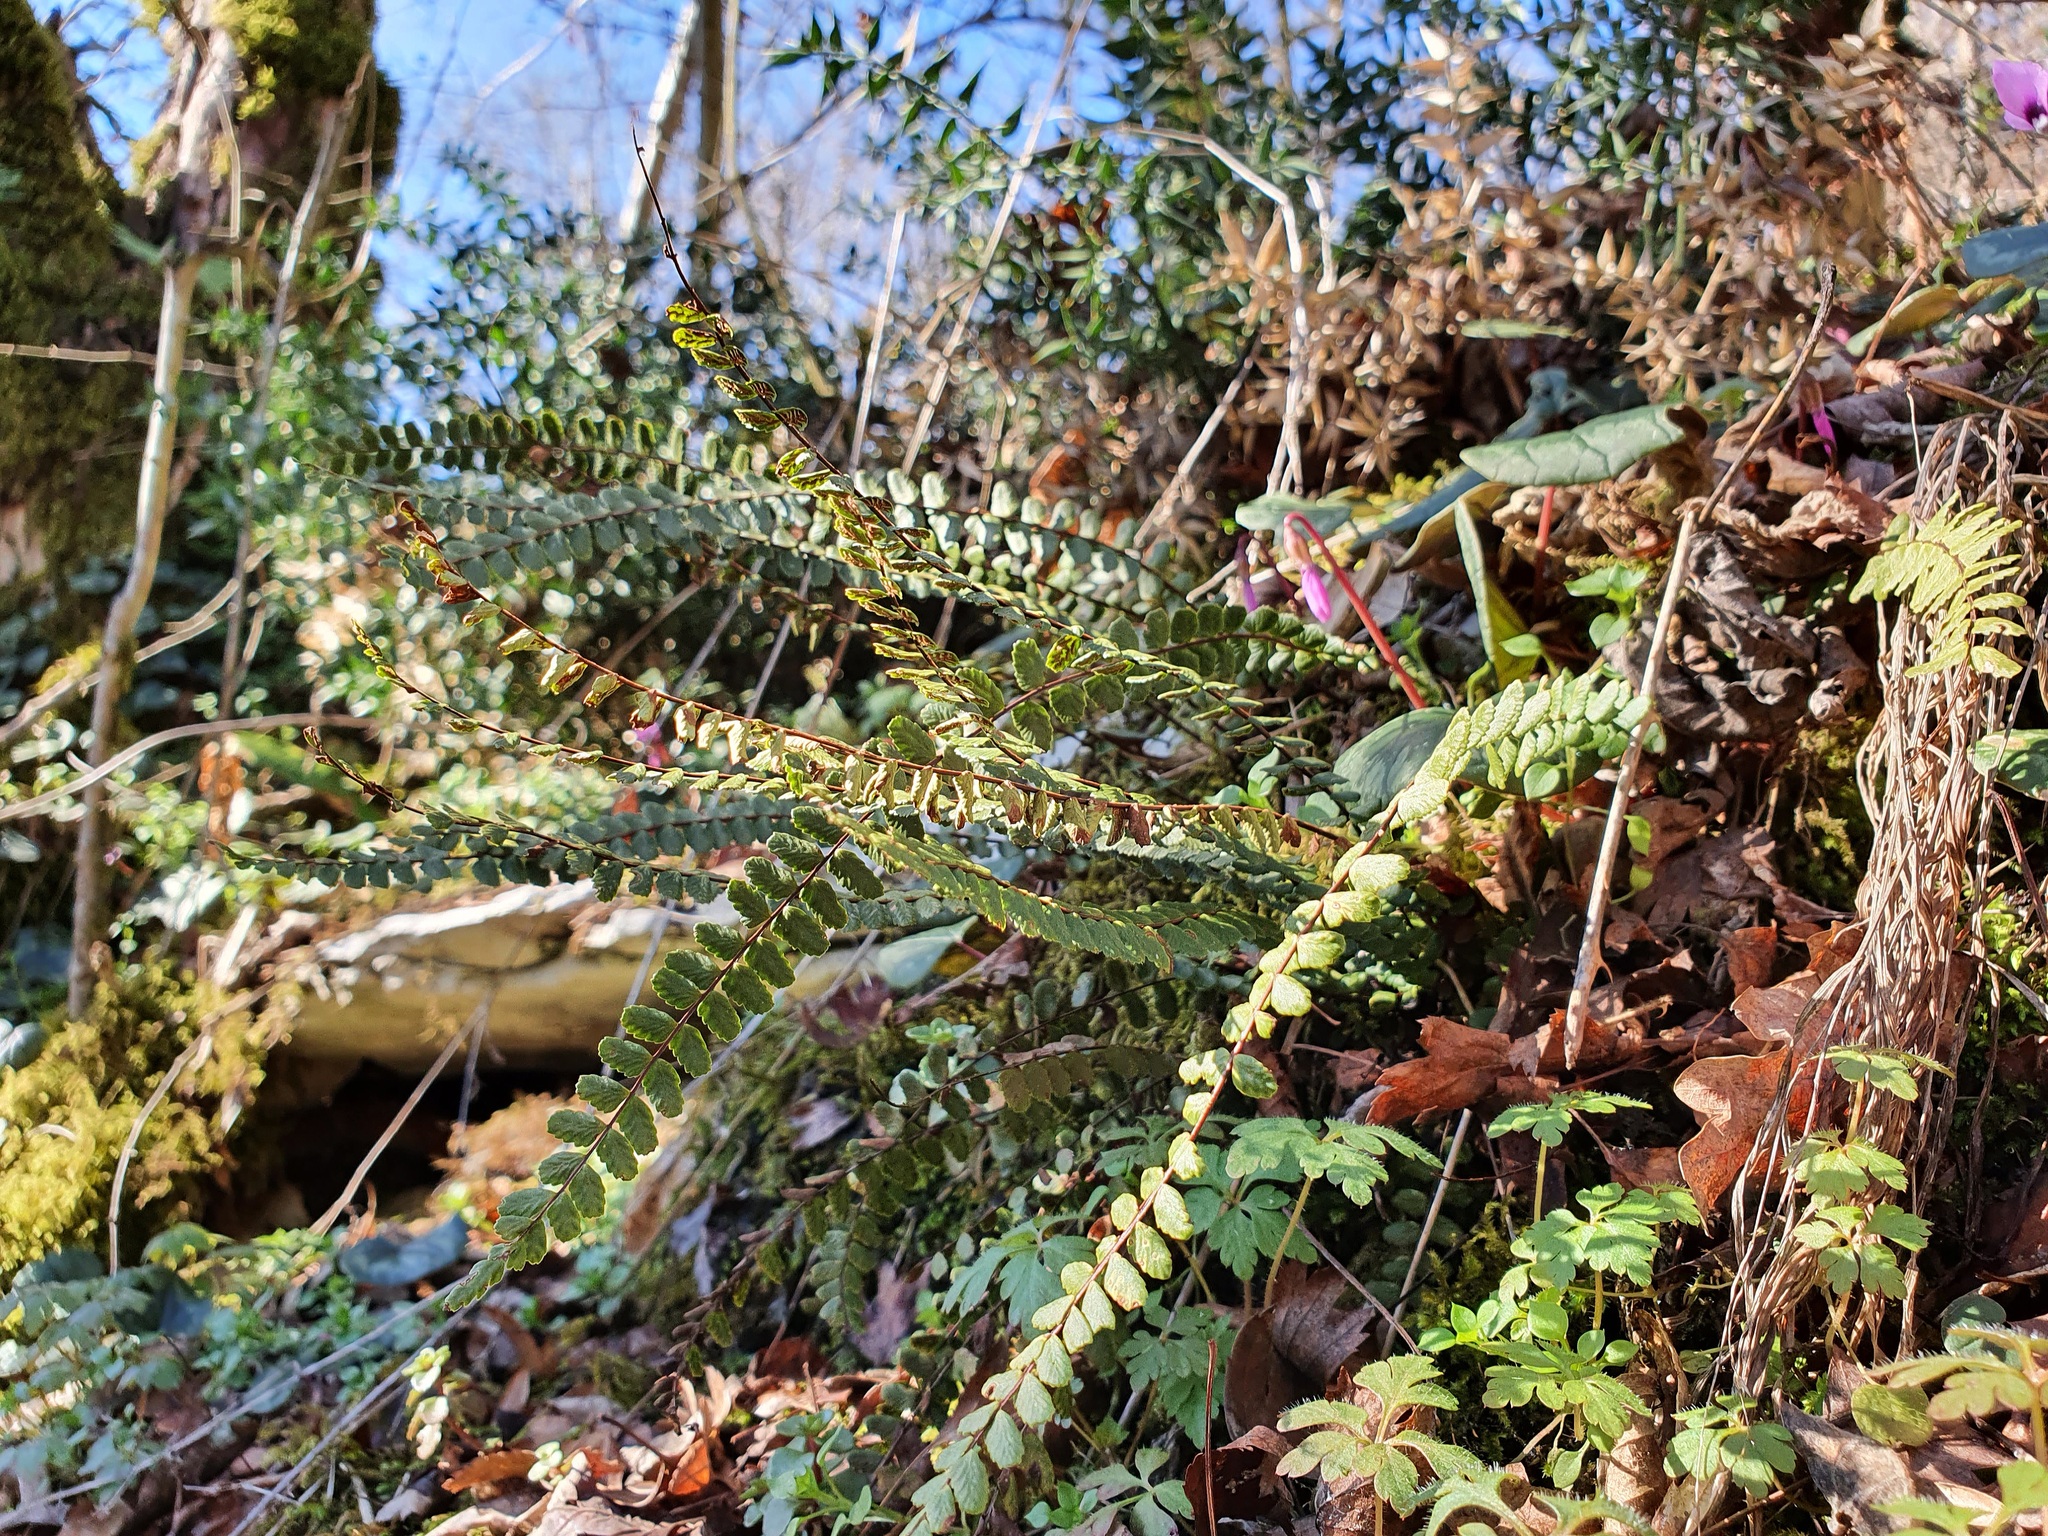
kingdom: Plantae
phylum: Tracheophyta
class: Polypodiopsida
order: Polypodiales
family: Aspleniaceae
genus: Asplenium
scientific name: Asplenium trichomanes
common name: Maidenhair spleenwort
